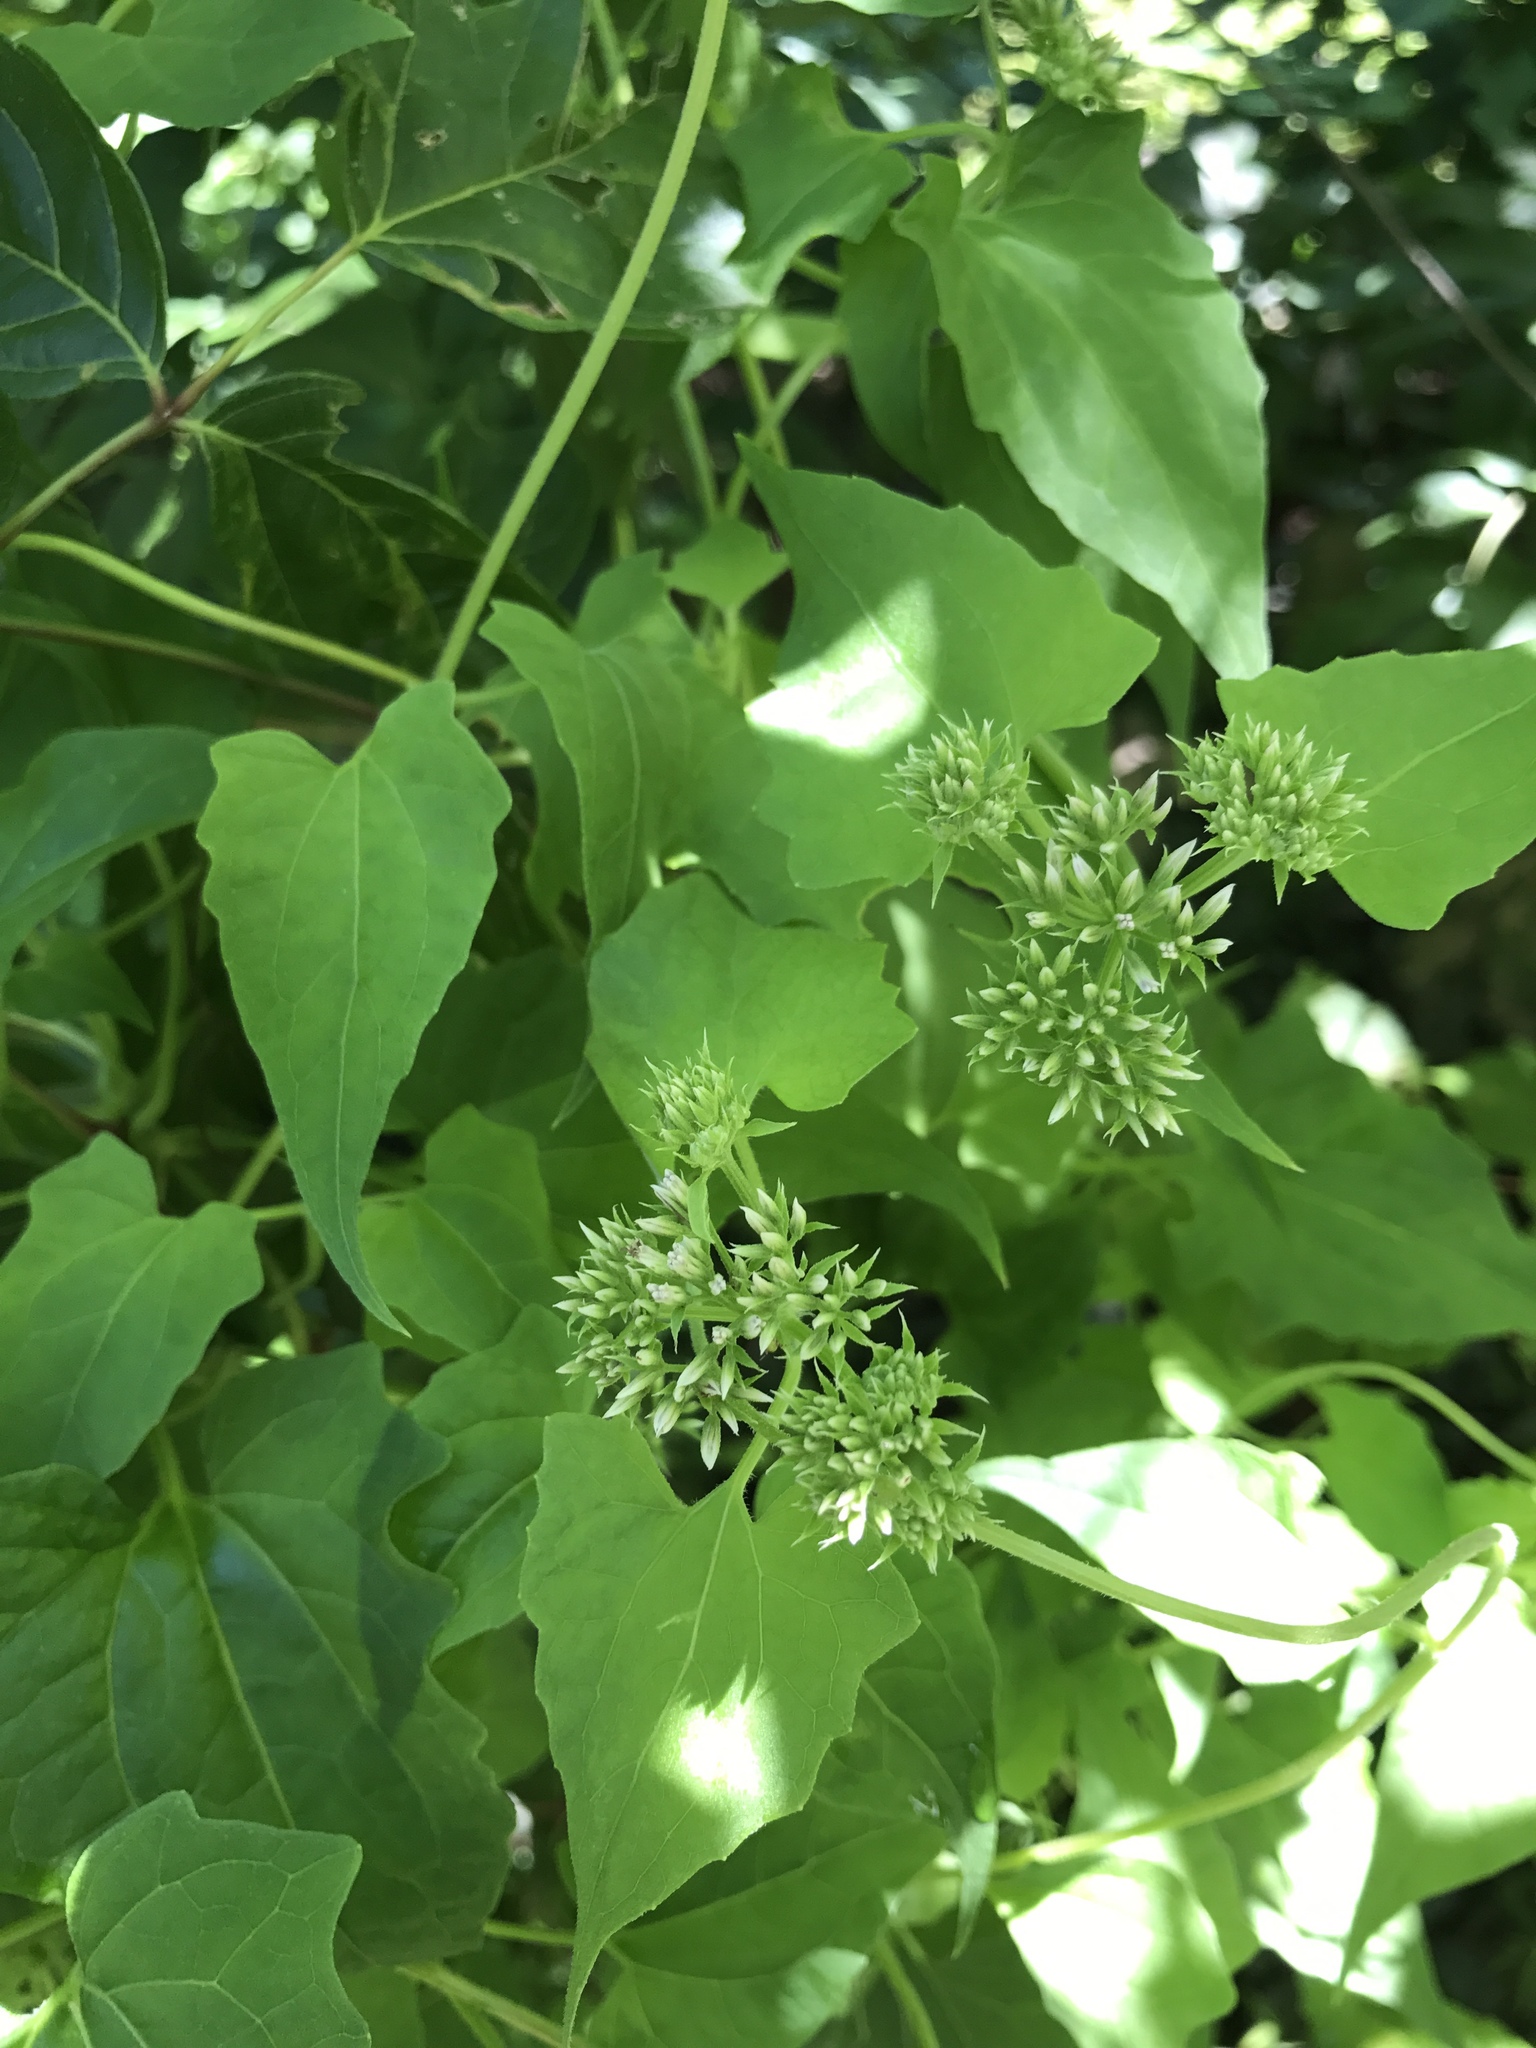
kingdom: Plantae
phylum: Tracheophyta
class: Magnoliopsida
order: Asterales
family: Asteraceae
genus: Mikania
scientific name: Mikania scandens
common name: Climbing hempvine
